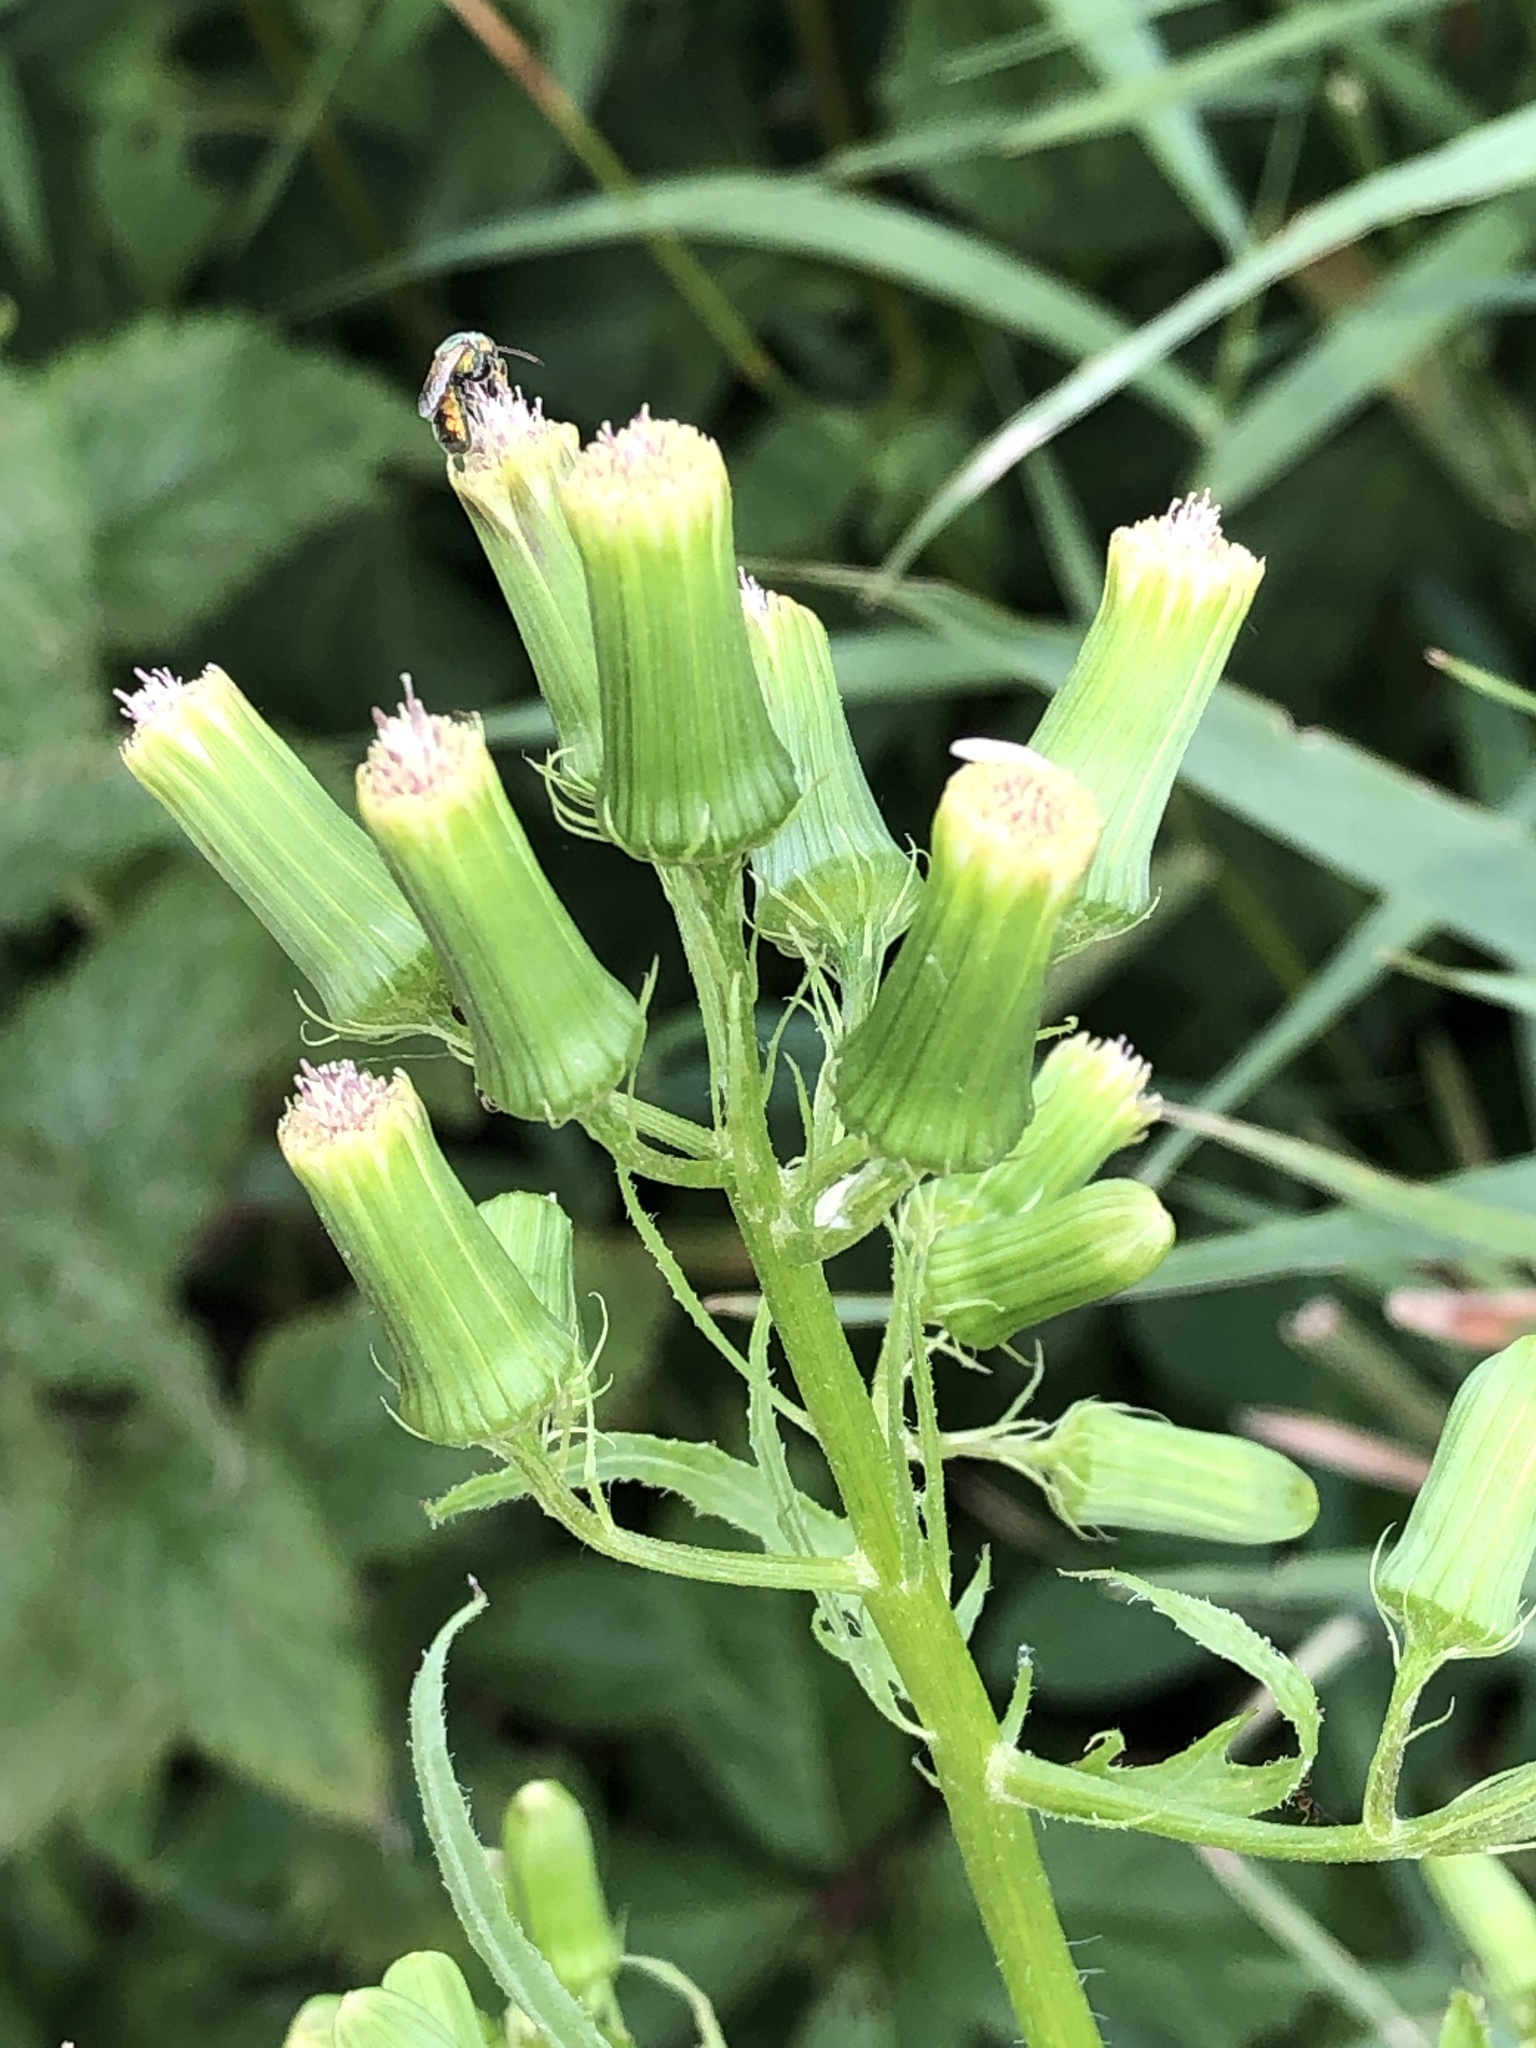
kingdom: Plantae
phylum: Tracheophyta
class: Magnoliopsida
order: Asterales
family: Asteraceae
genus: Erechtites
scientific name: Erechtites hieraciifolius
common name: American burnweed
